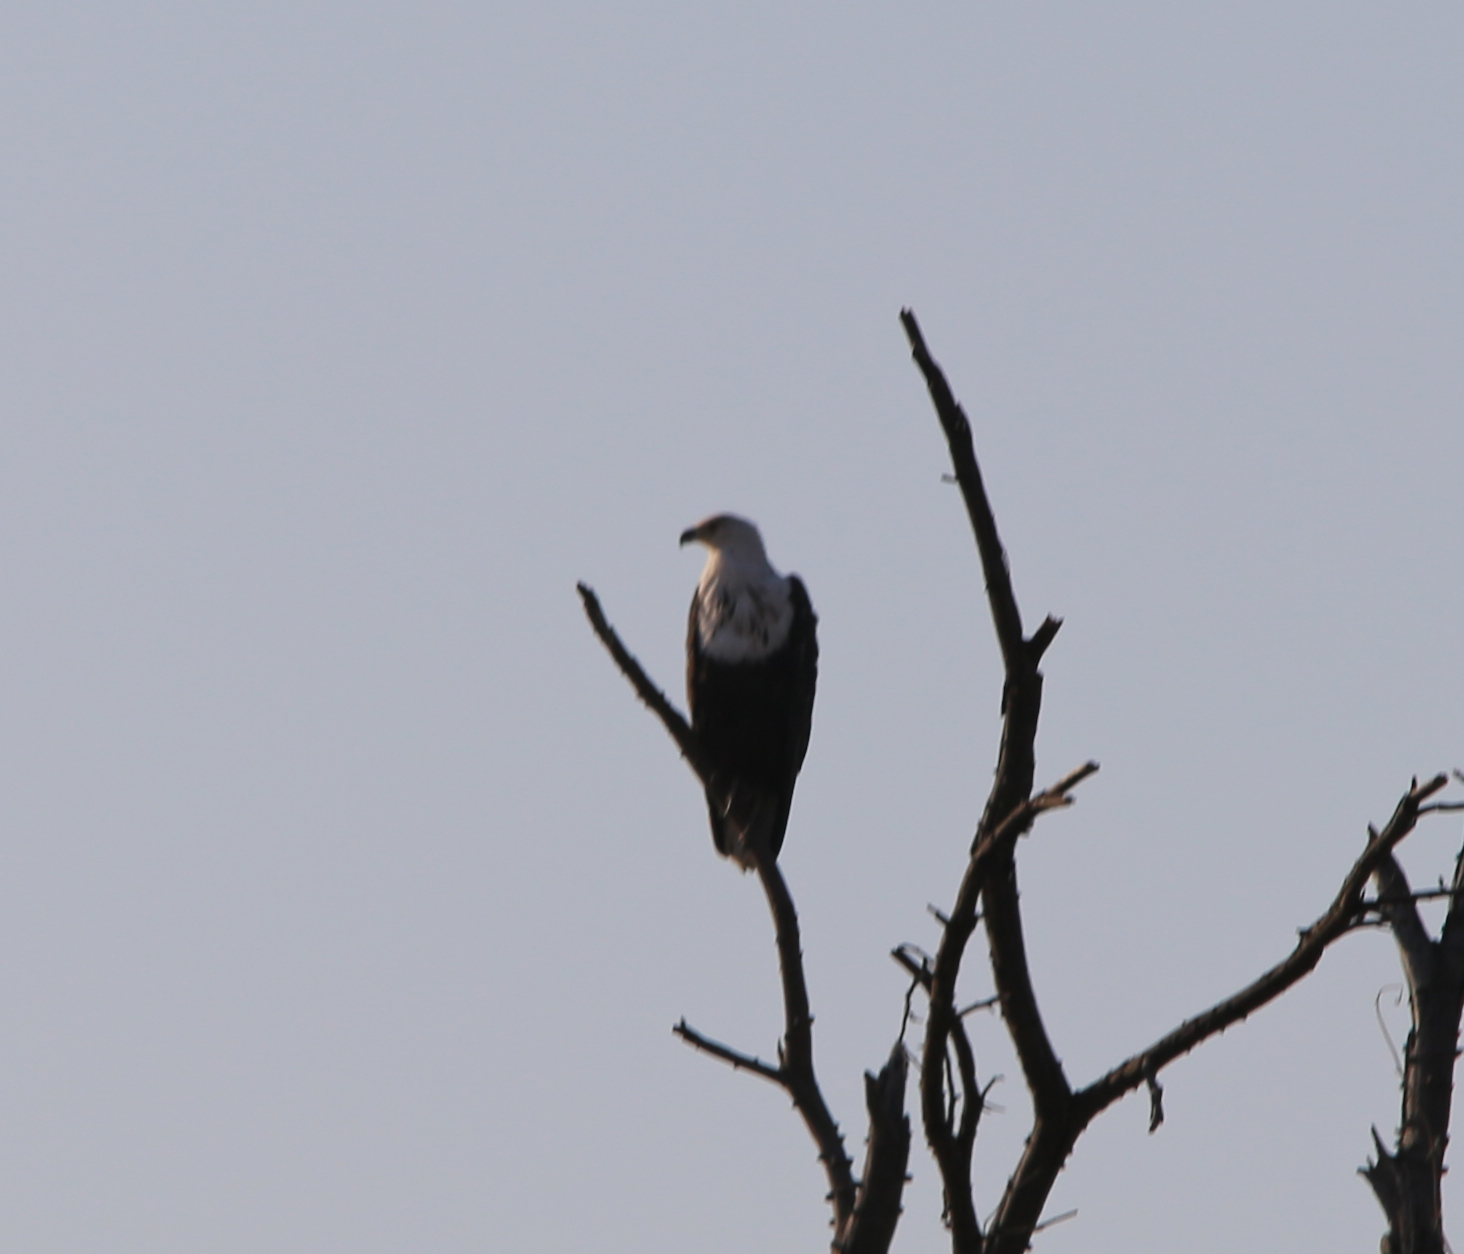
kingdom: Animalia
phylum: Chordata
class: Aves
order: Accipitriformes
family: Accipitridae
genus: Haliaeetus
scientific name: Haliaeetus vocifer
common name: African fish eagle
